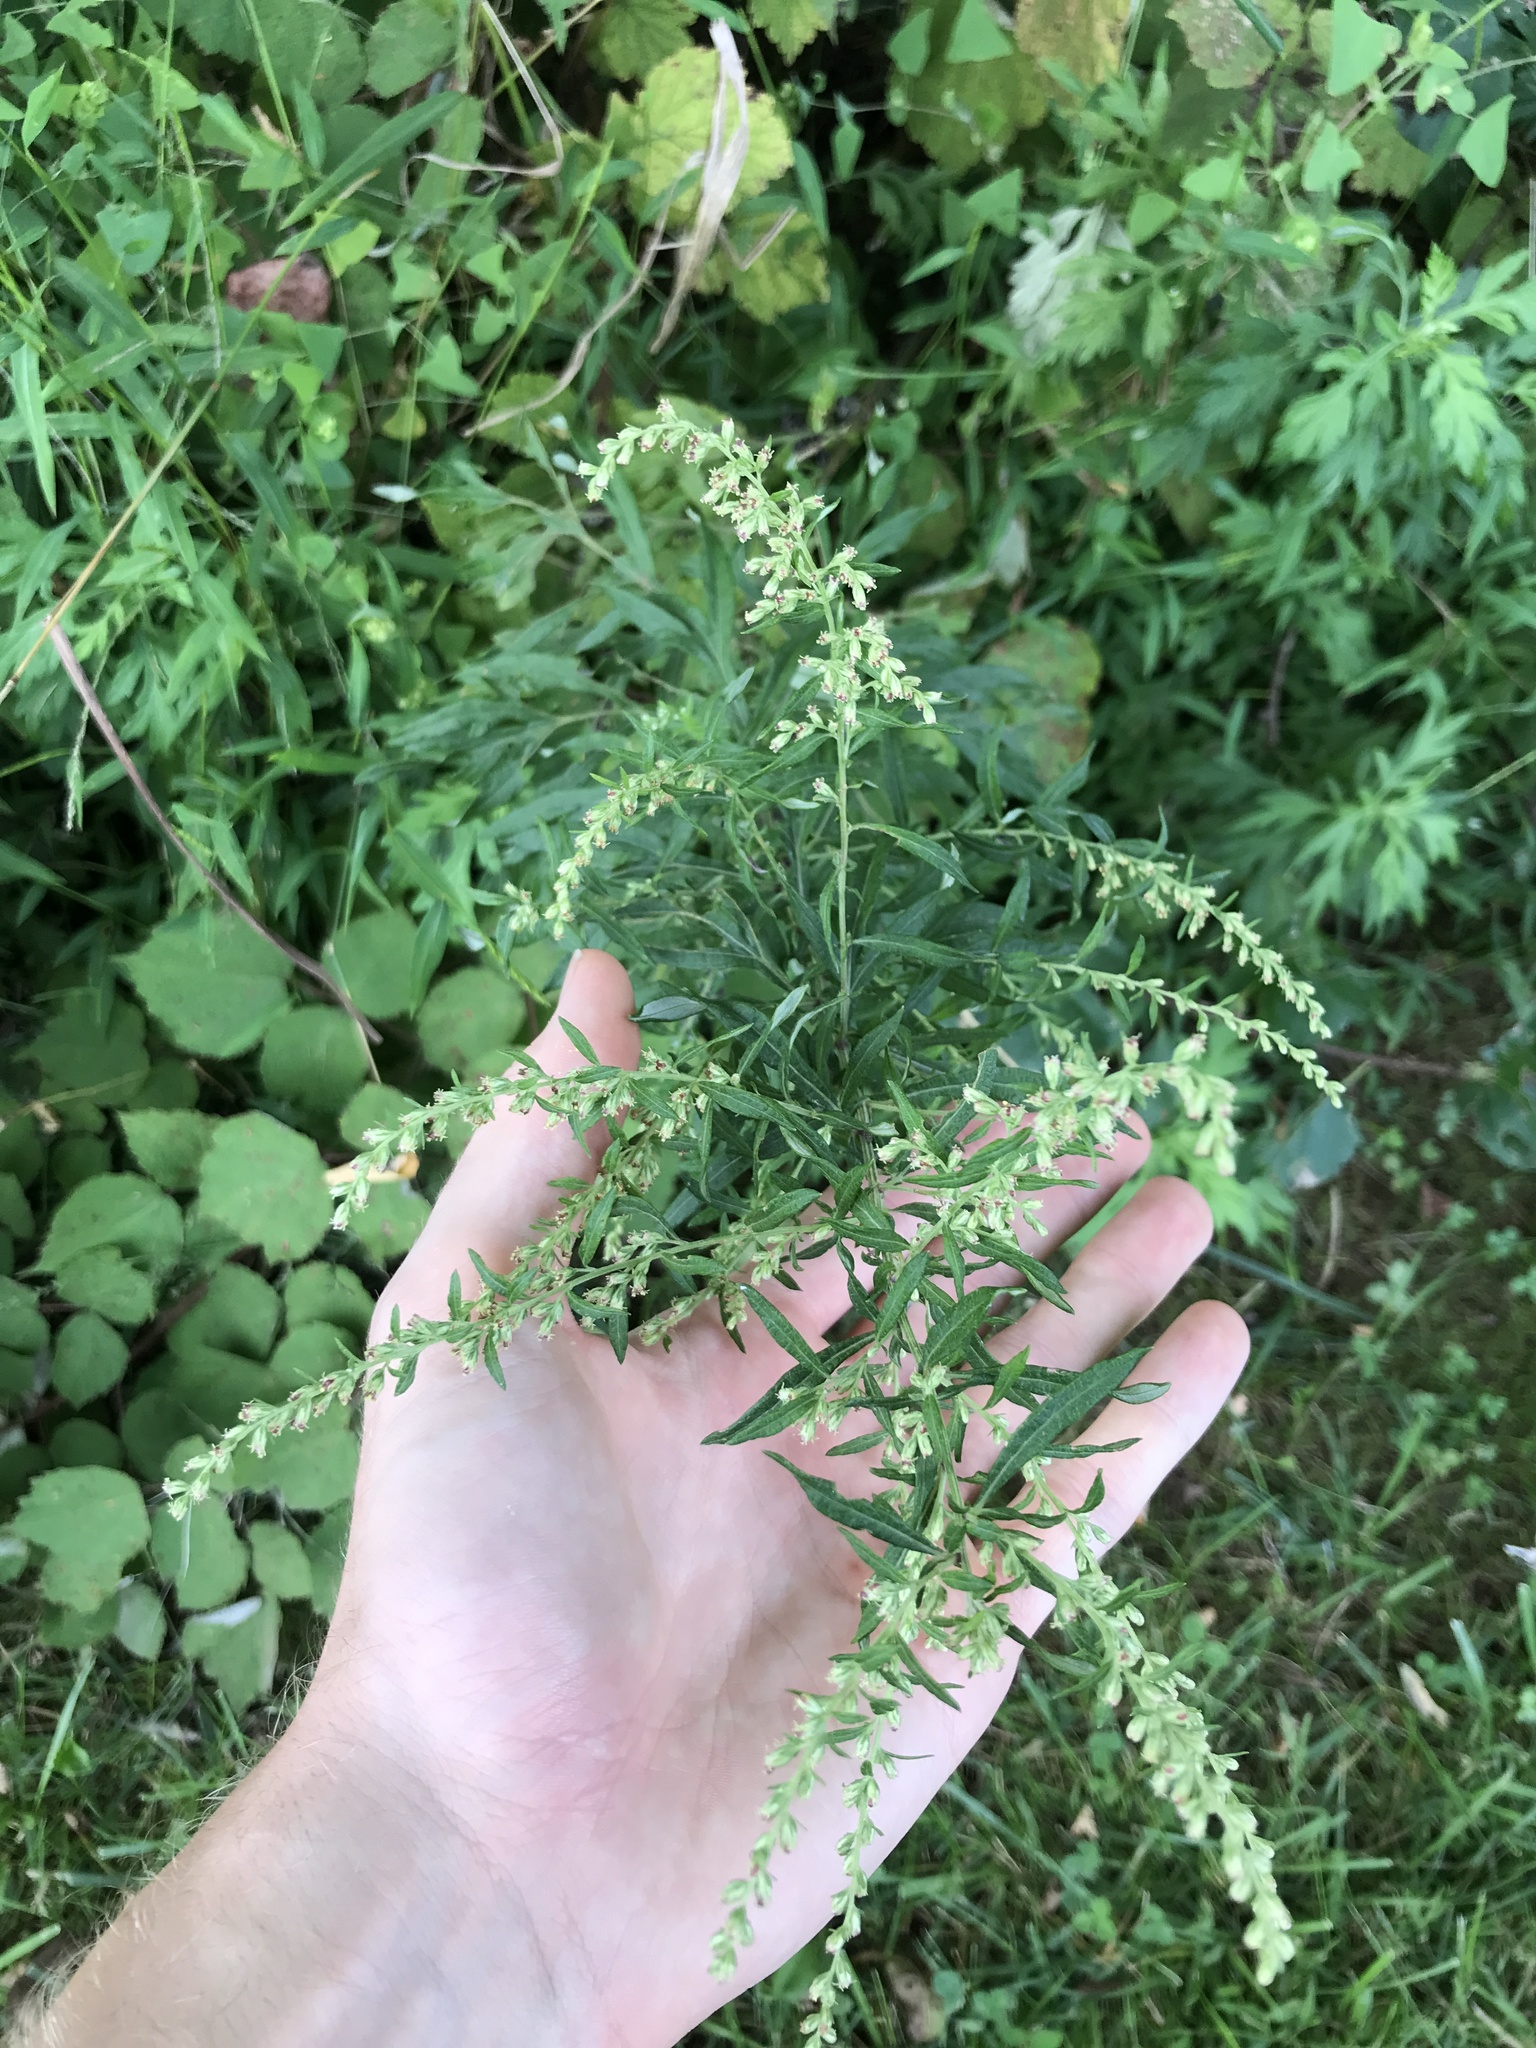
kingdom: Plantae
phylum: Tracheophyta
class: Magnoliopsida
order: Asterales
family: Asteraceae
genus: Artemisia
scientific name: Artemisia vulgaris
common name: Mugwort
